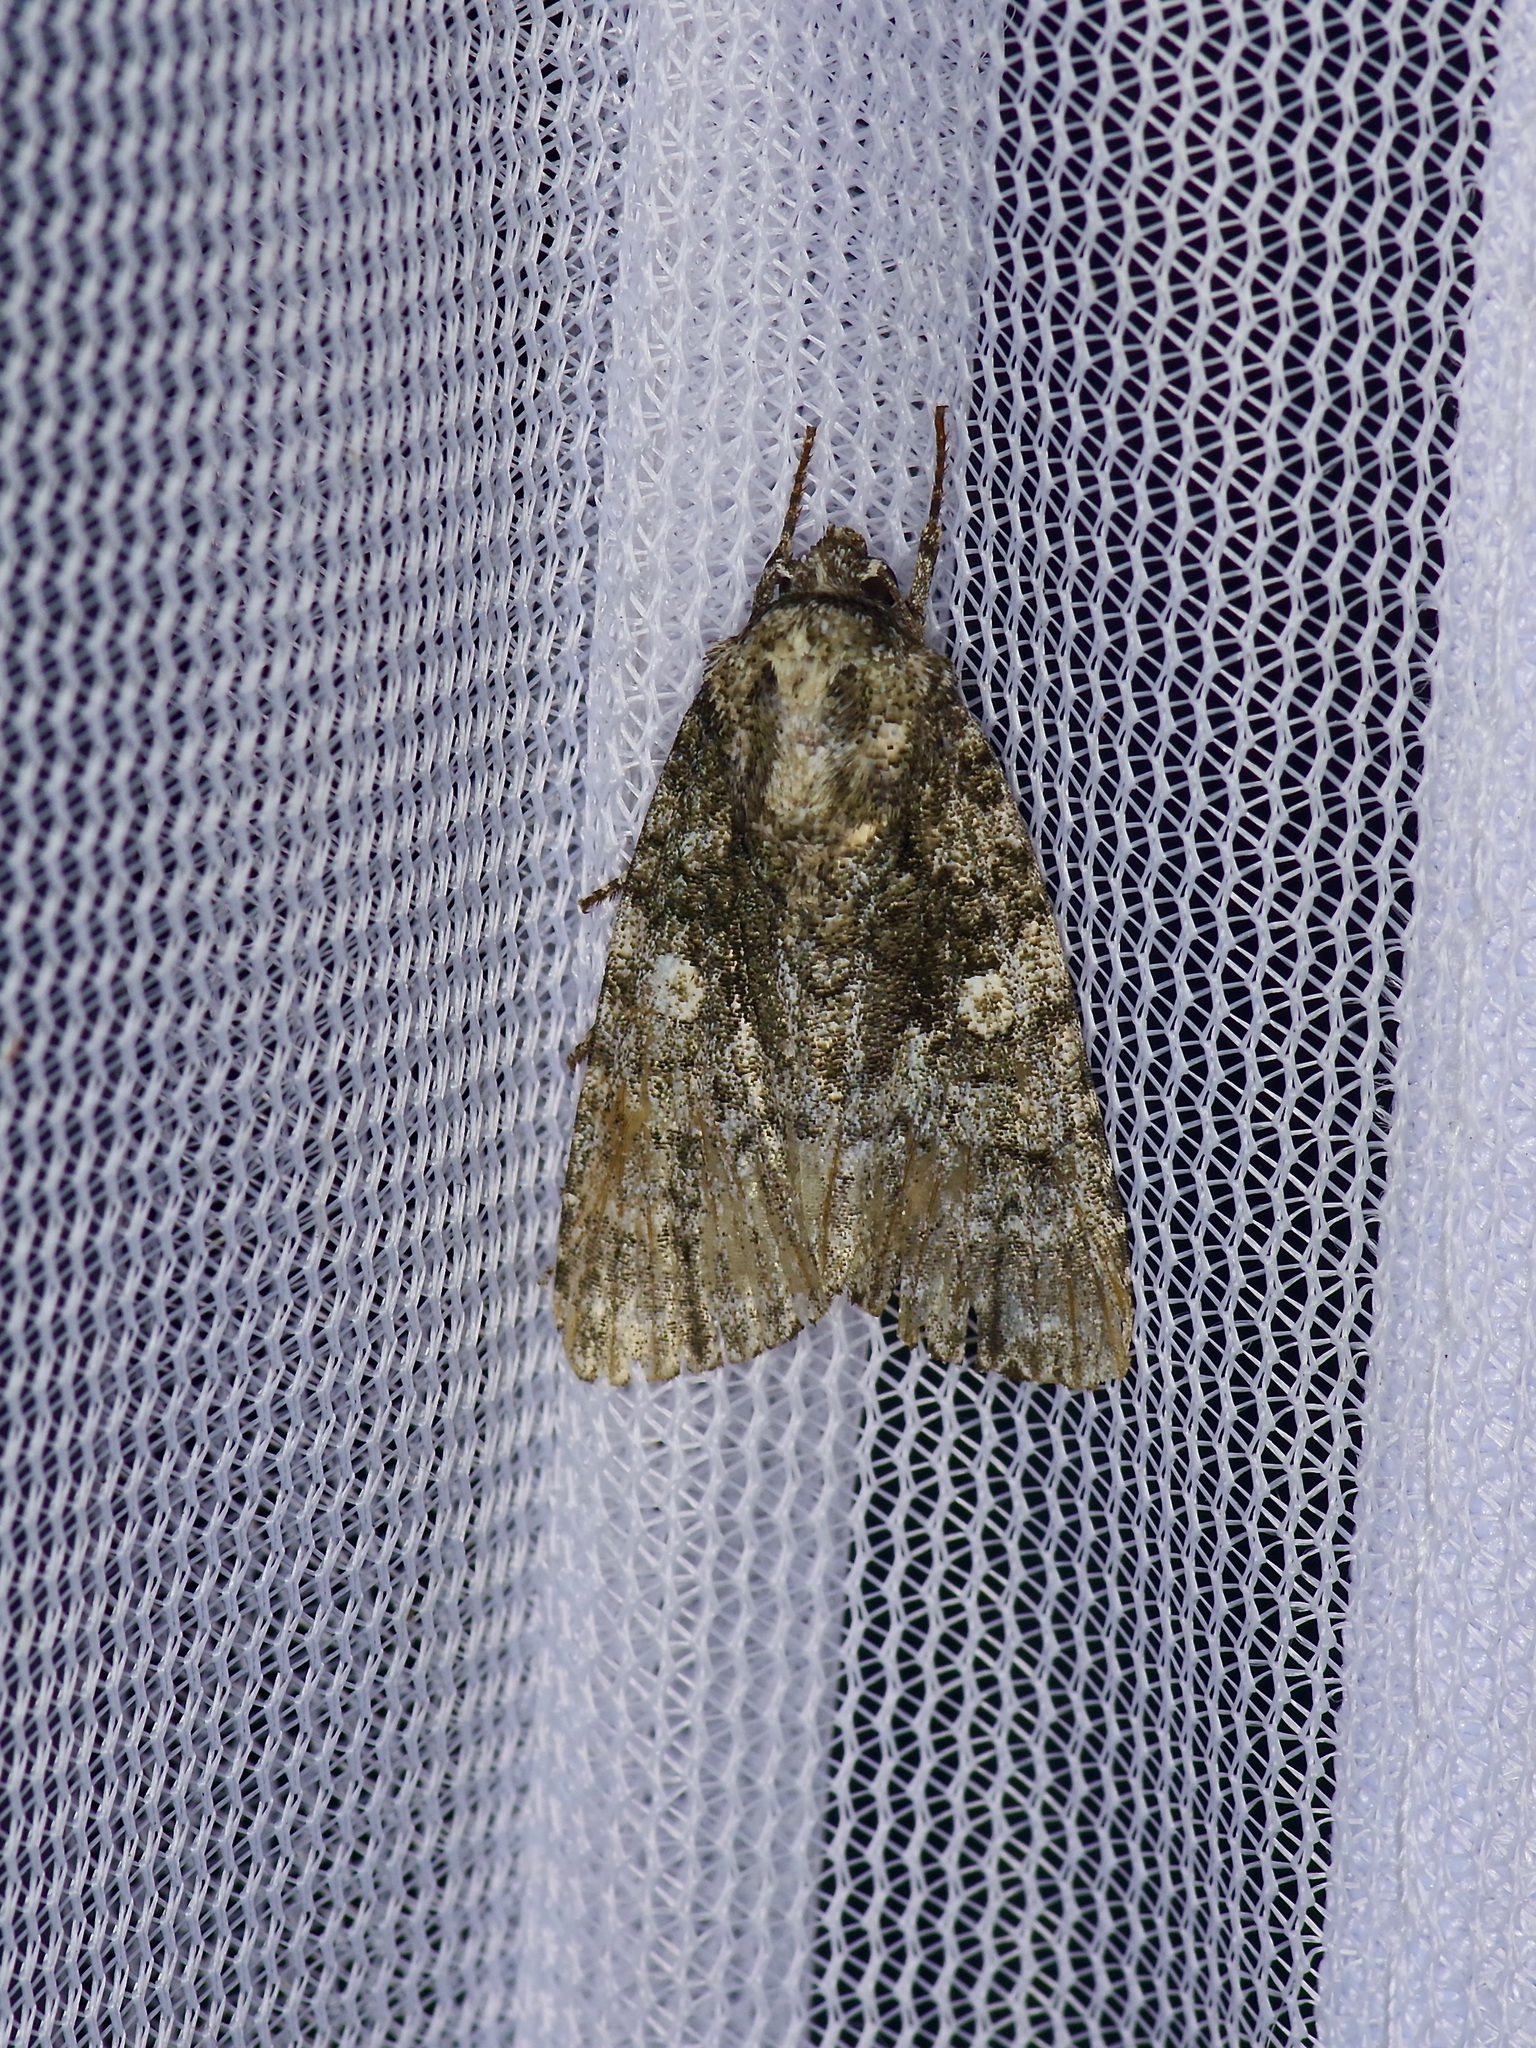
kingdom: Animalia
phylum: Arthropoda
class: Insecta
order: Lepidoptera
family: Noctuidae
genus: Acronicta
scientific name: Acronicta afflicta
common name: Afflicted dagger moth
